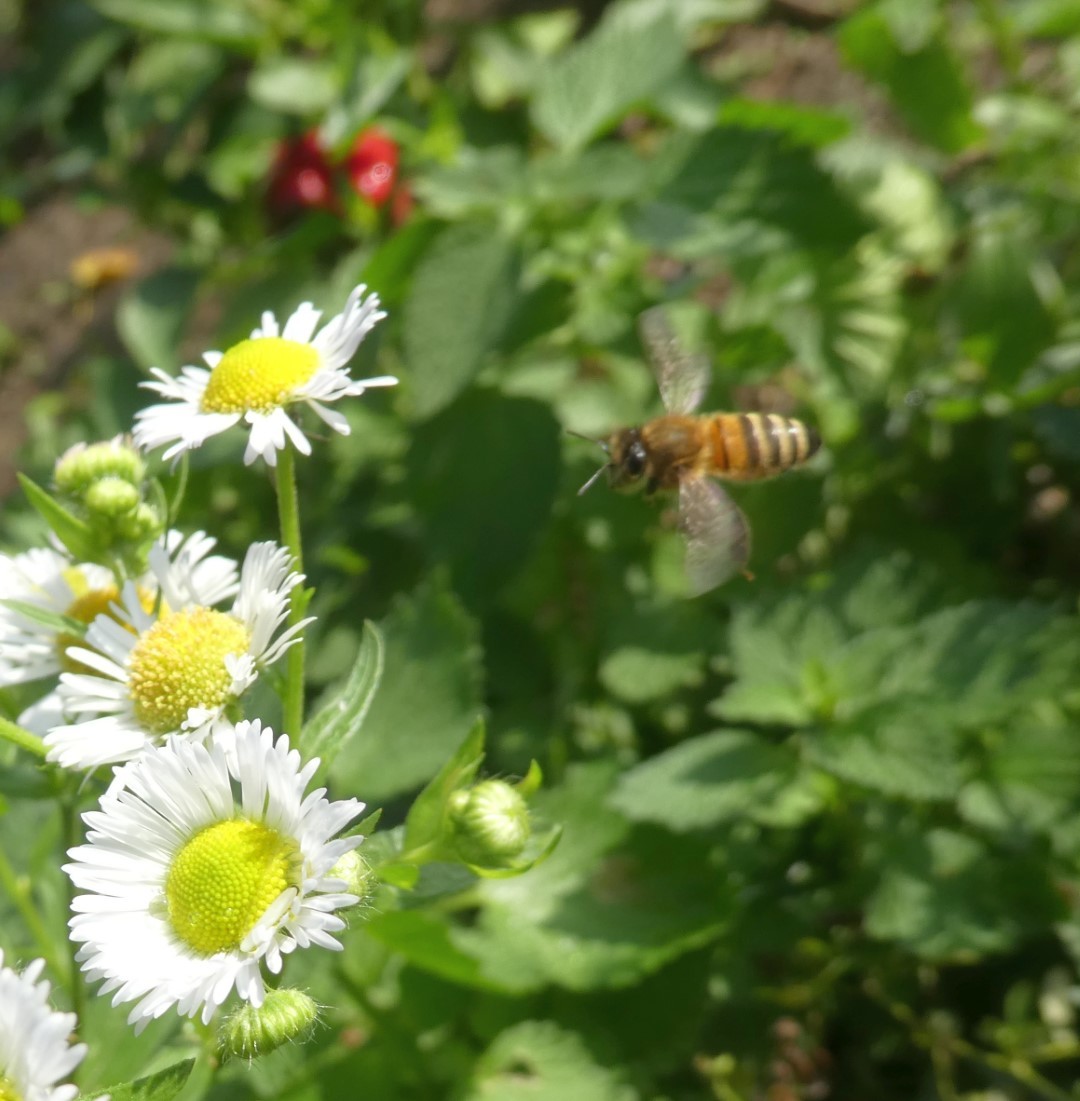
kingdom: Animalia
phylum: Arthropoda
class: Insecta
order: Hymenoptera
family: Apidae
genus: Apis
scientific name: Apis mellifera
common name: Honey bee
